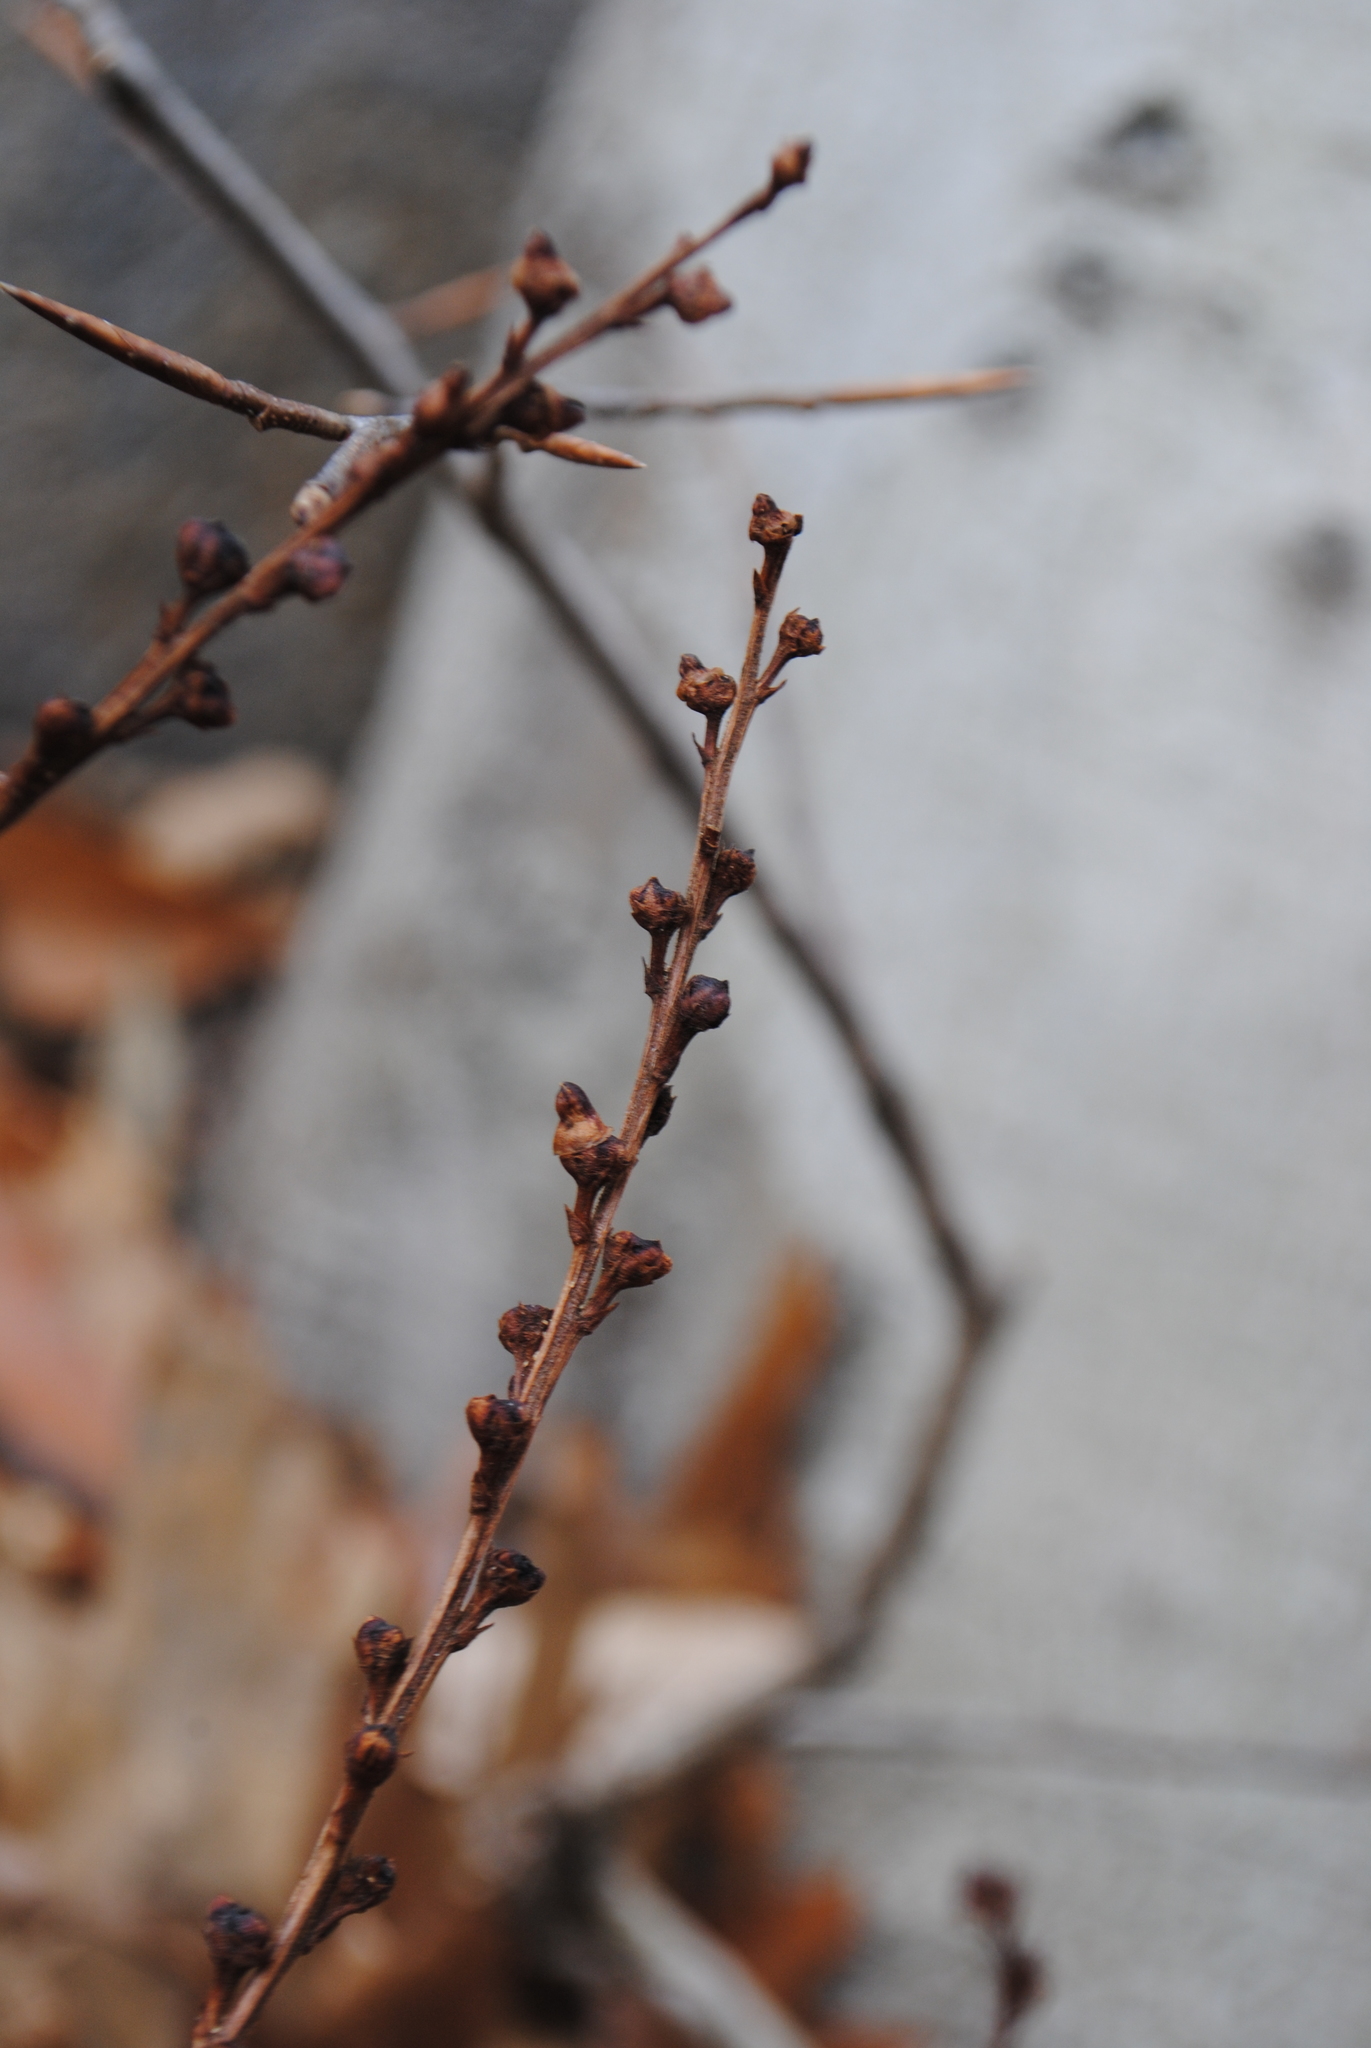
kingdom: Plantae
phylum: Tracheophyta
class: Magnoliopsida
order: Lamiales
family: Orobanchaceae
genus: Epifagus
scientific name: Epifagus virginiana
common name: Beechdrops
